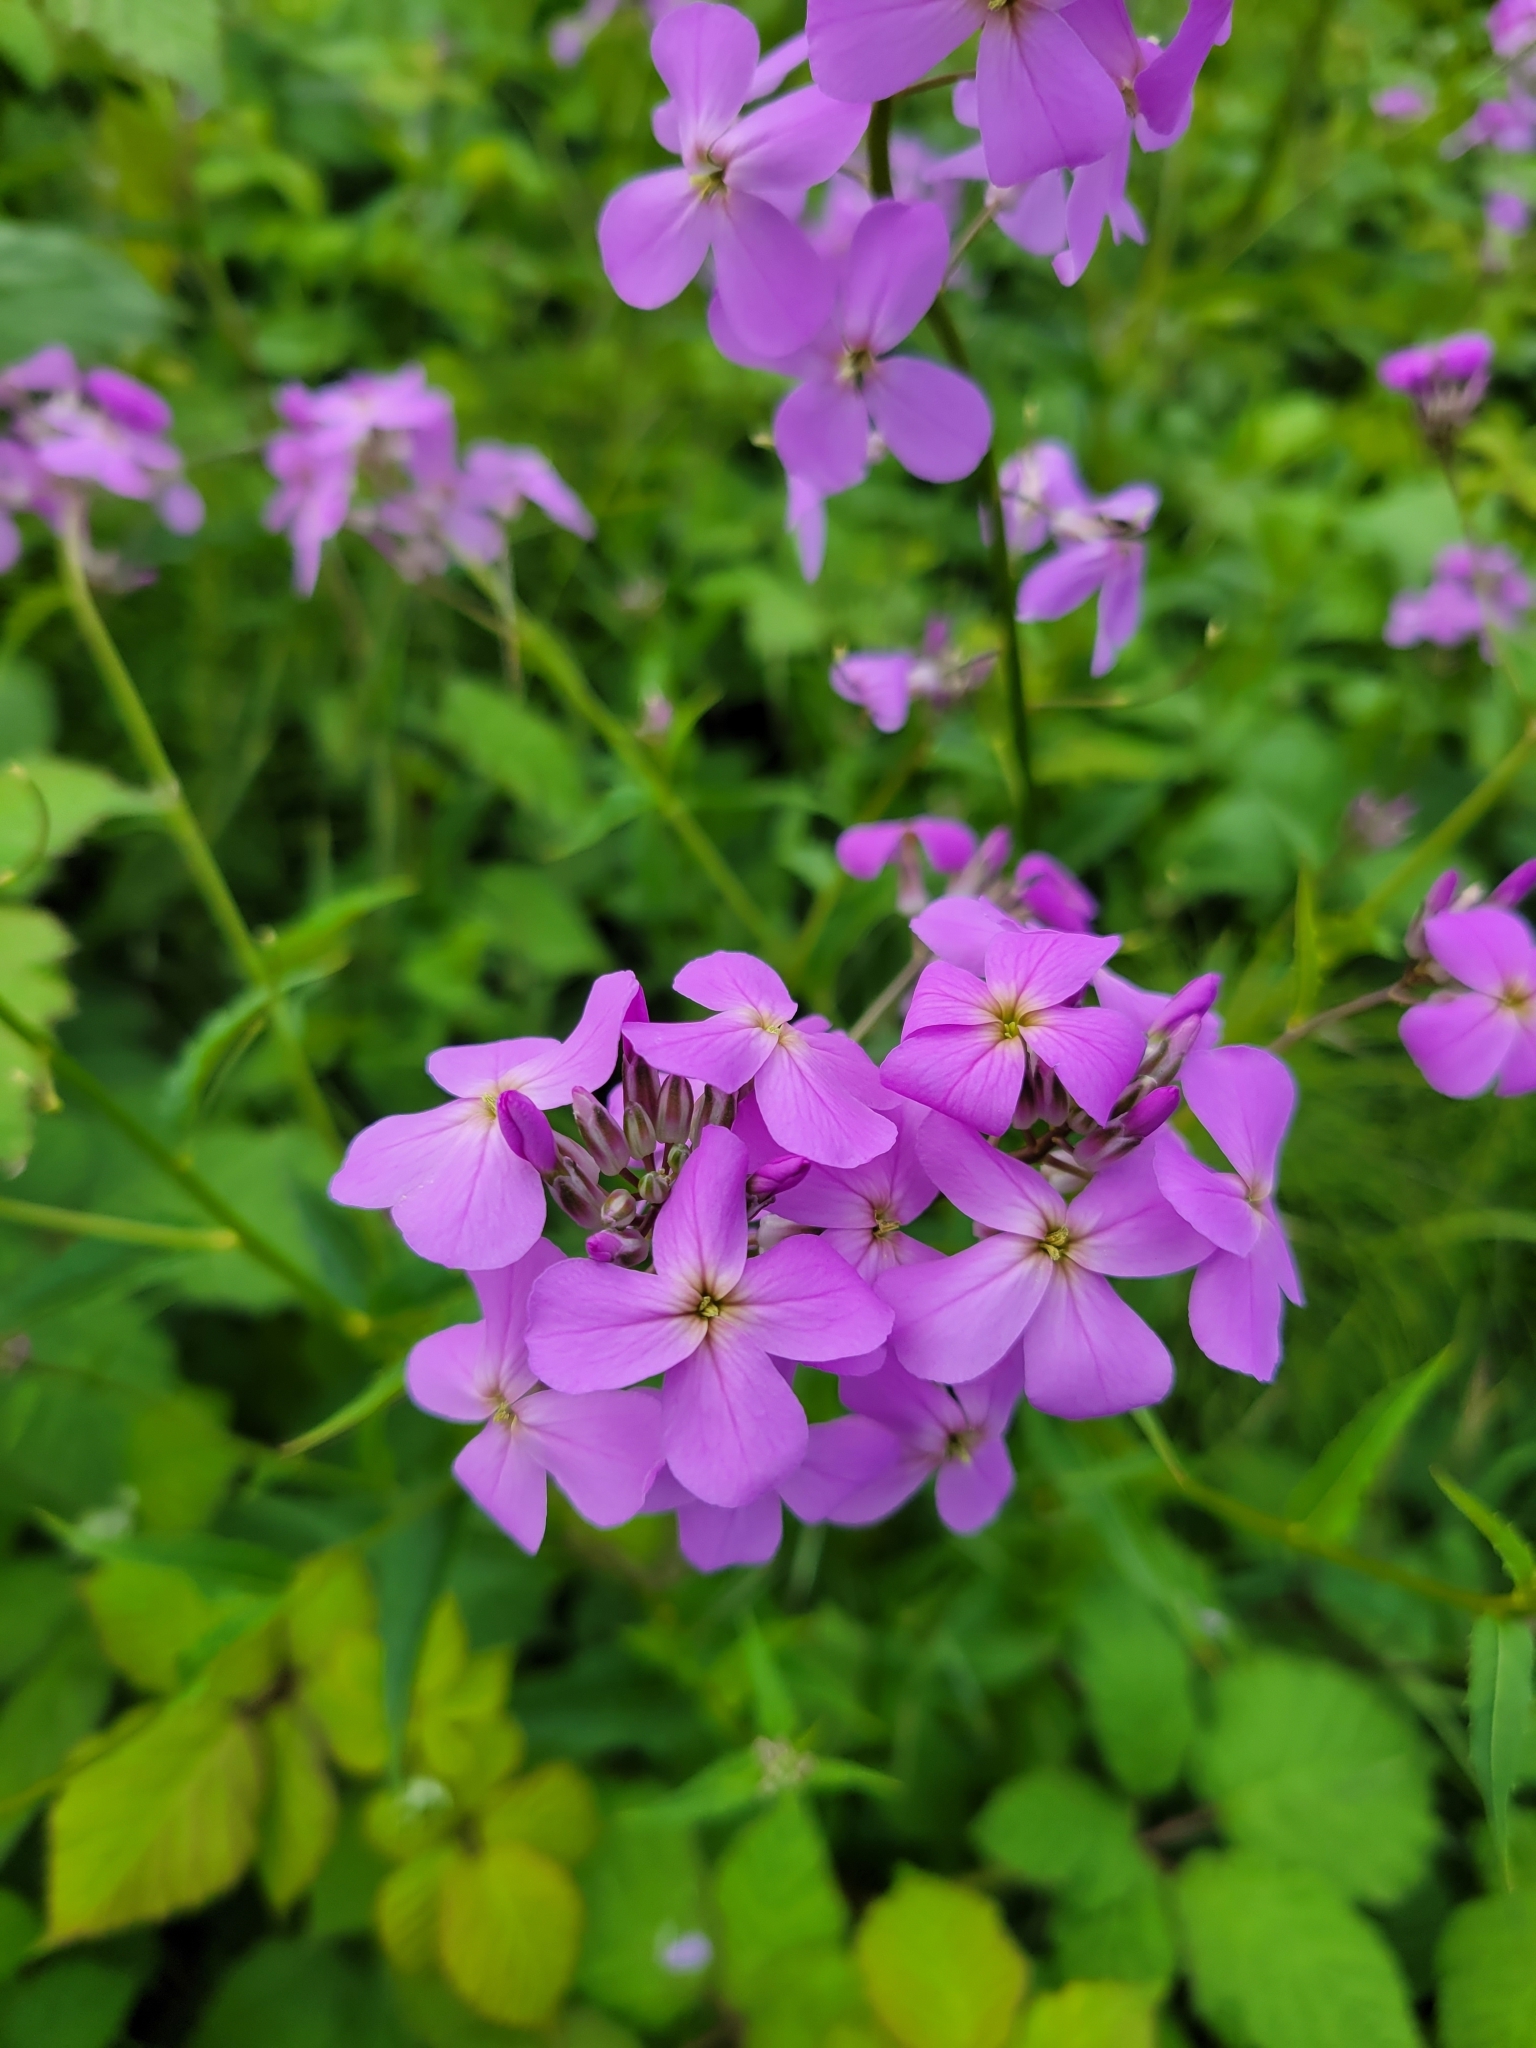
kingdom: Plantae
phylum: Tracheophyta
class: Magnoliopsida
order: Brassicales
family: Brassicaceae
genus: Hesperis
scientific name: Hesperis matronalis
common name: Dame's-violet
